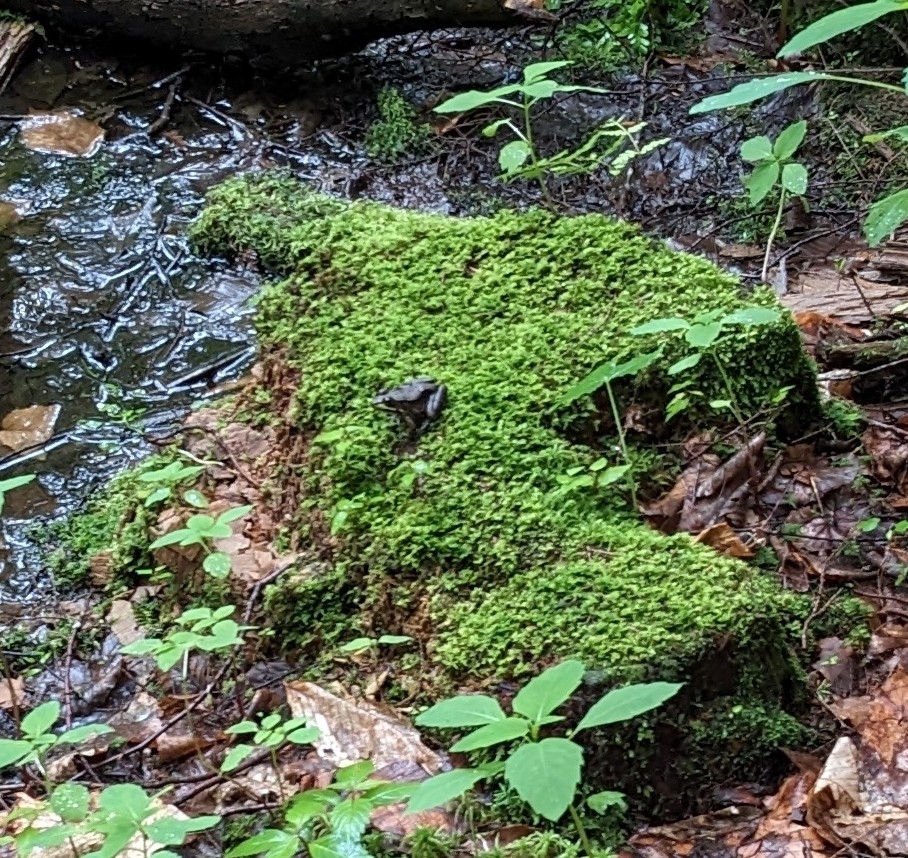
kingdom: Animalia
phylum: Chordata
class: Amphibia
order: Anura
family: Ranidae
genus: Lithobates
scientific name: Lithobates clamitans
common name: Green frog
